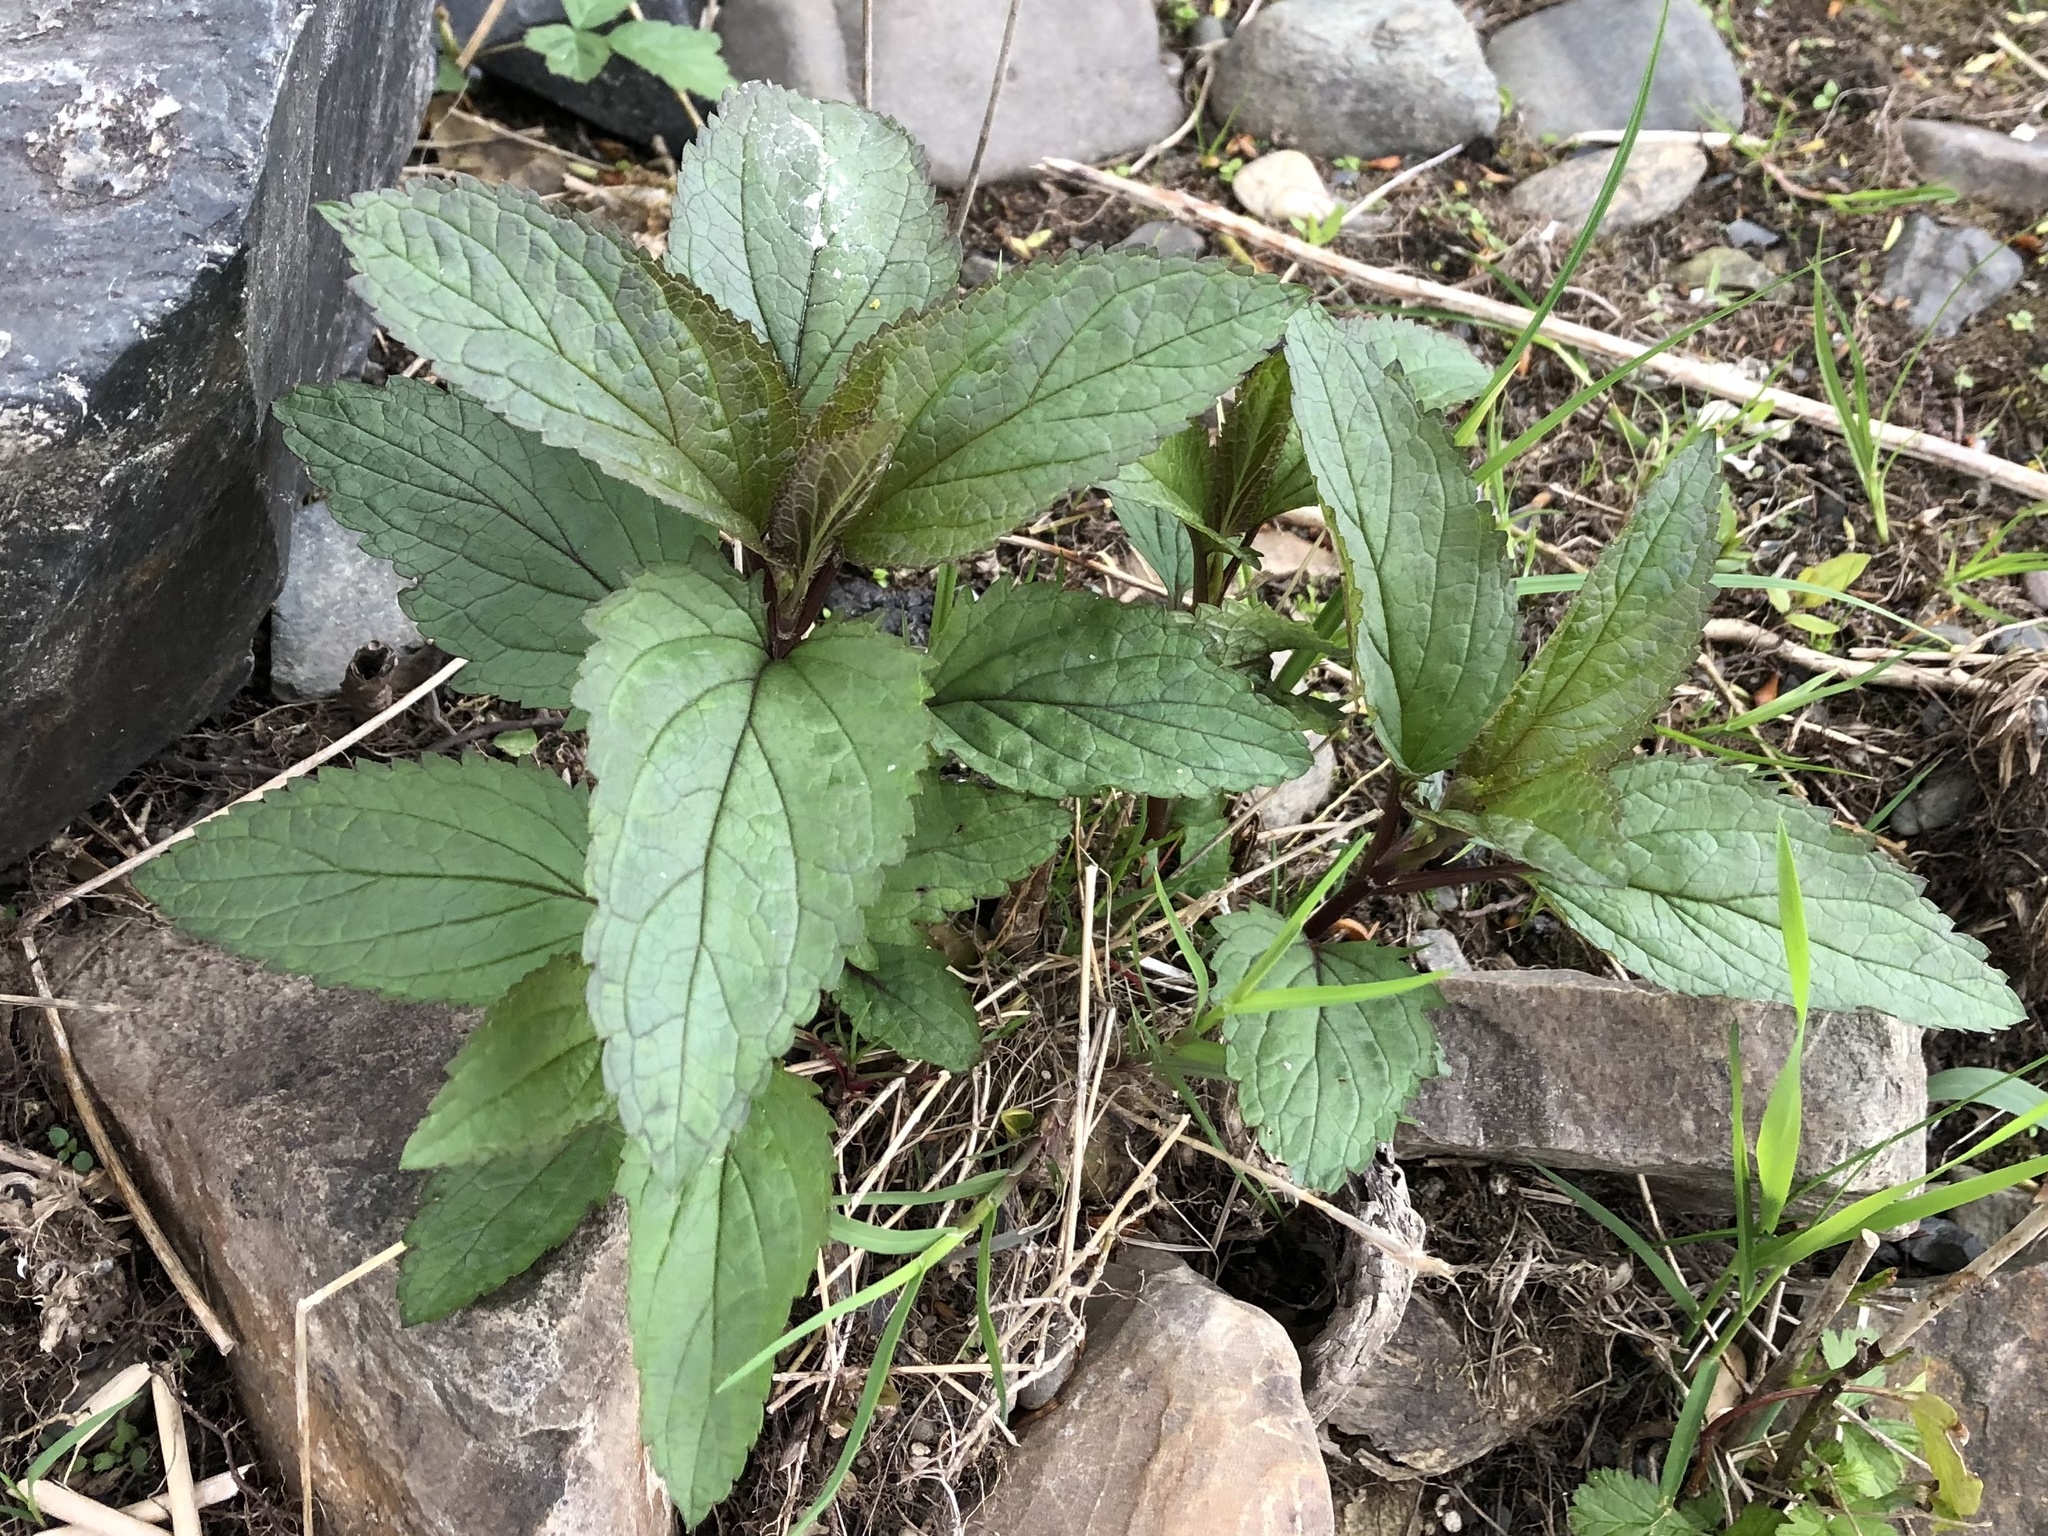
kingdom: Plantae
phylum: Tracheophyta
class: Magnoliopsida
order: Lamiales
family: Scrophulariaceae
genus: Scrophularia
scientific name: Scrophularia nodosa
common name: Common figwort
